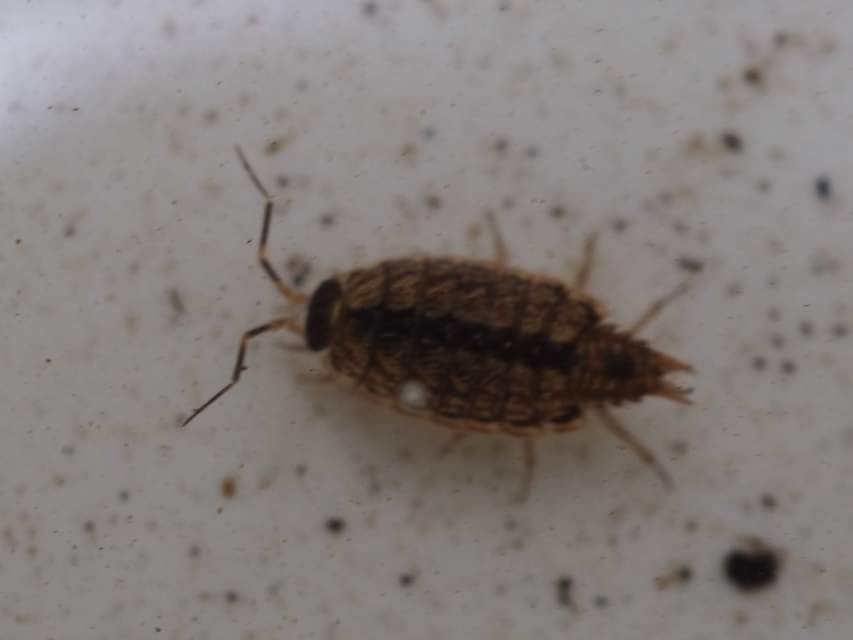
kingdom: Animalia
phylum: Arthropoda
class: Malacostraca
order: Isopoda
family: Philosciidae
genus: Philoscia
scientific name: Philoscia muscorum
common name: Common striped woodlouse
